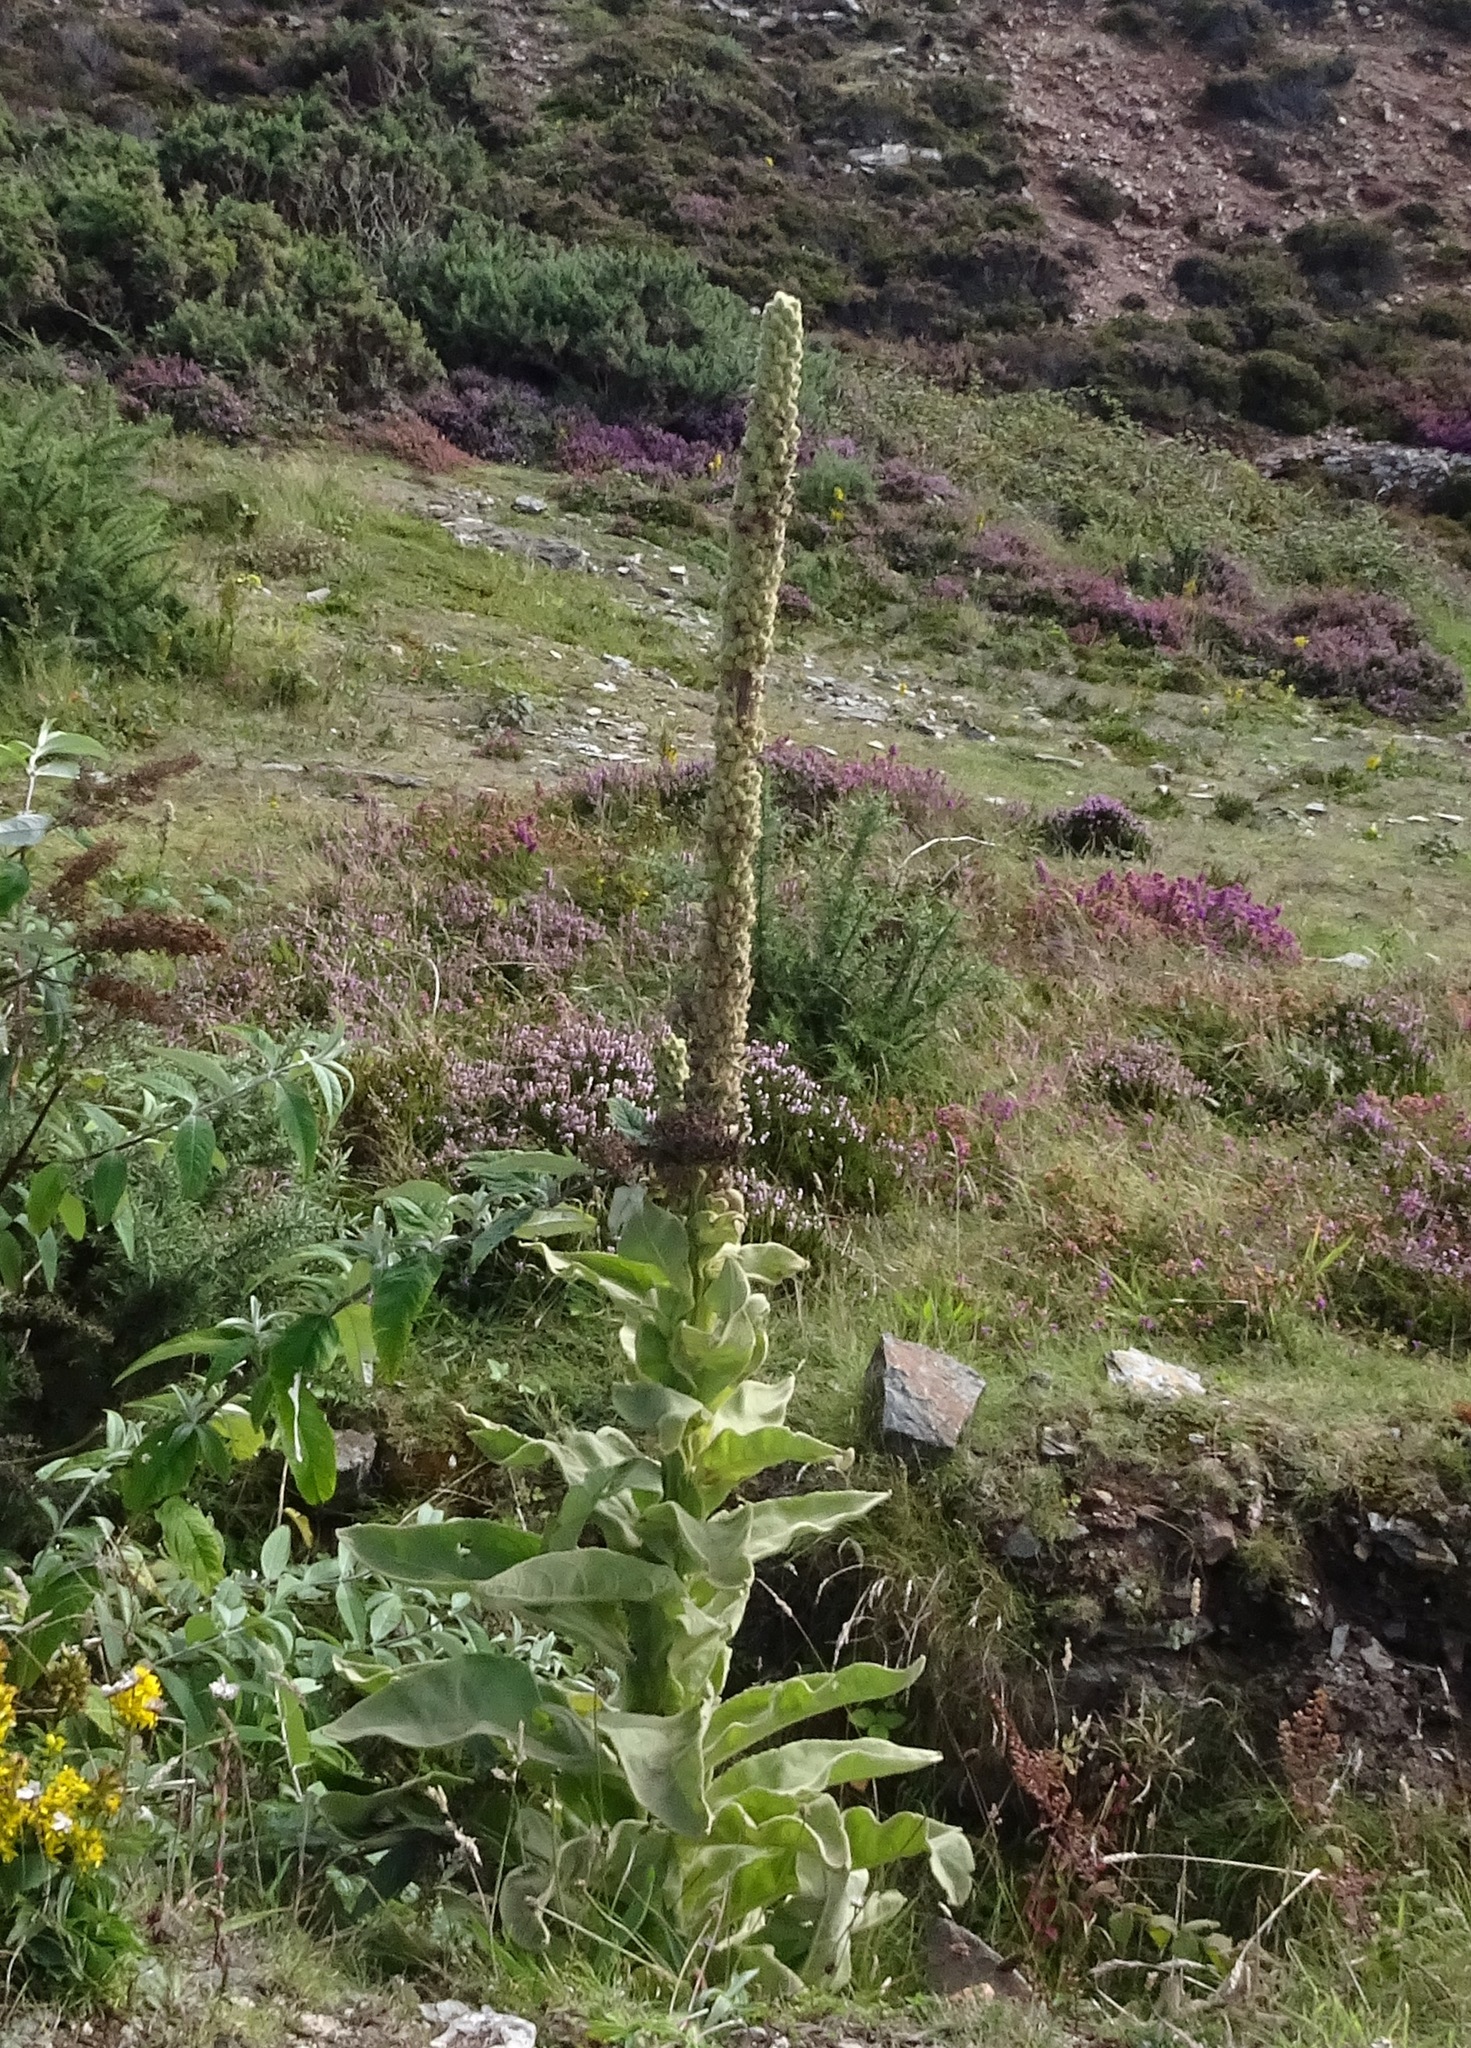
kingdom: Plantae
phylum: Tracheophyta
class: Magnoliopsida
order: Lamiales
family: Scrophulariaceae
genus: Verbascum
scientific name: Verbascum thapsus
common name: Common mullein
